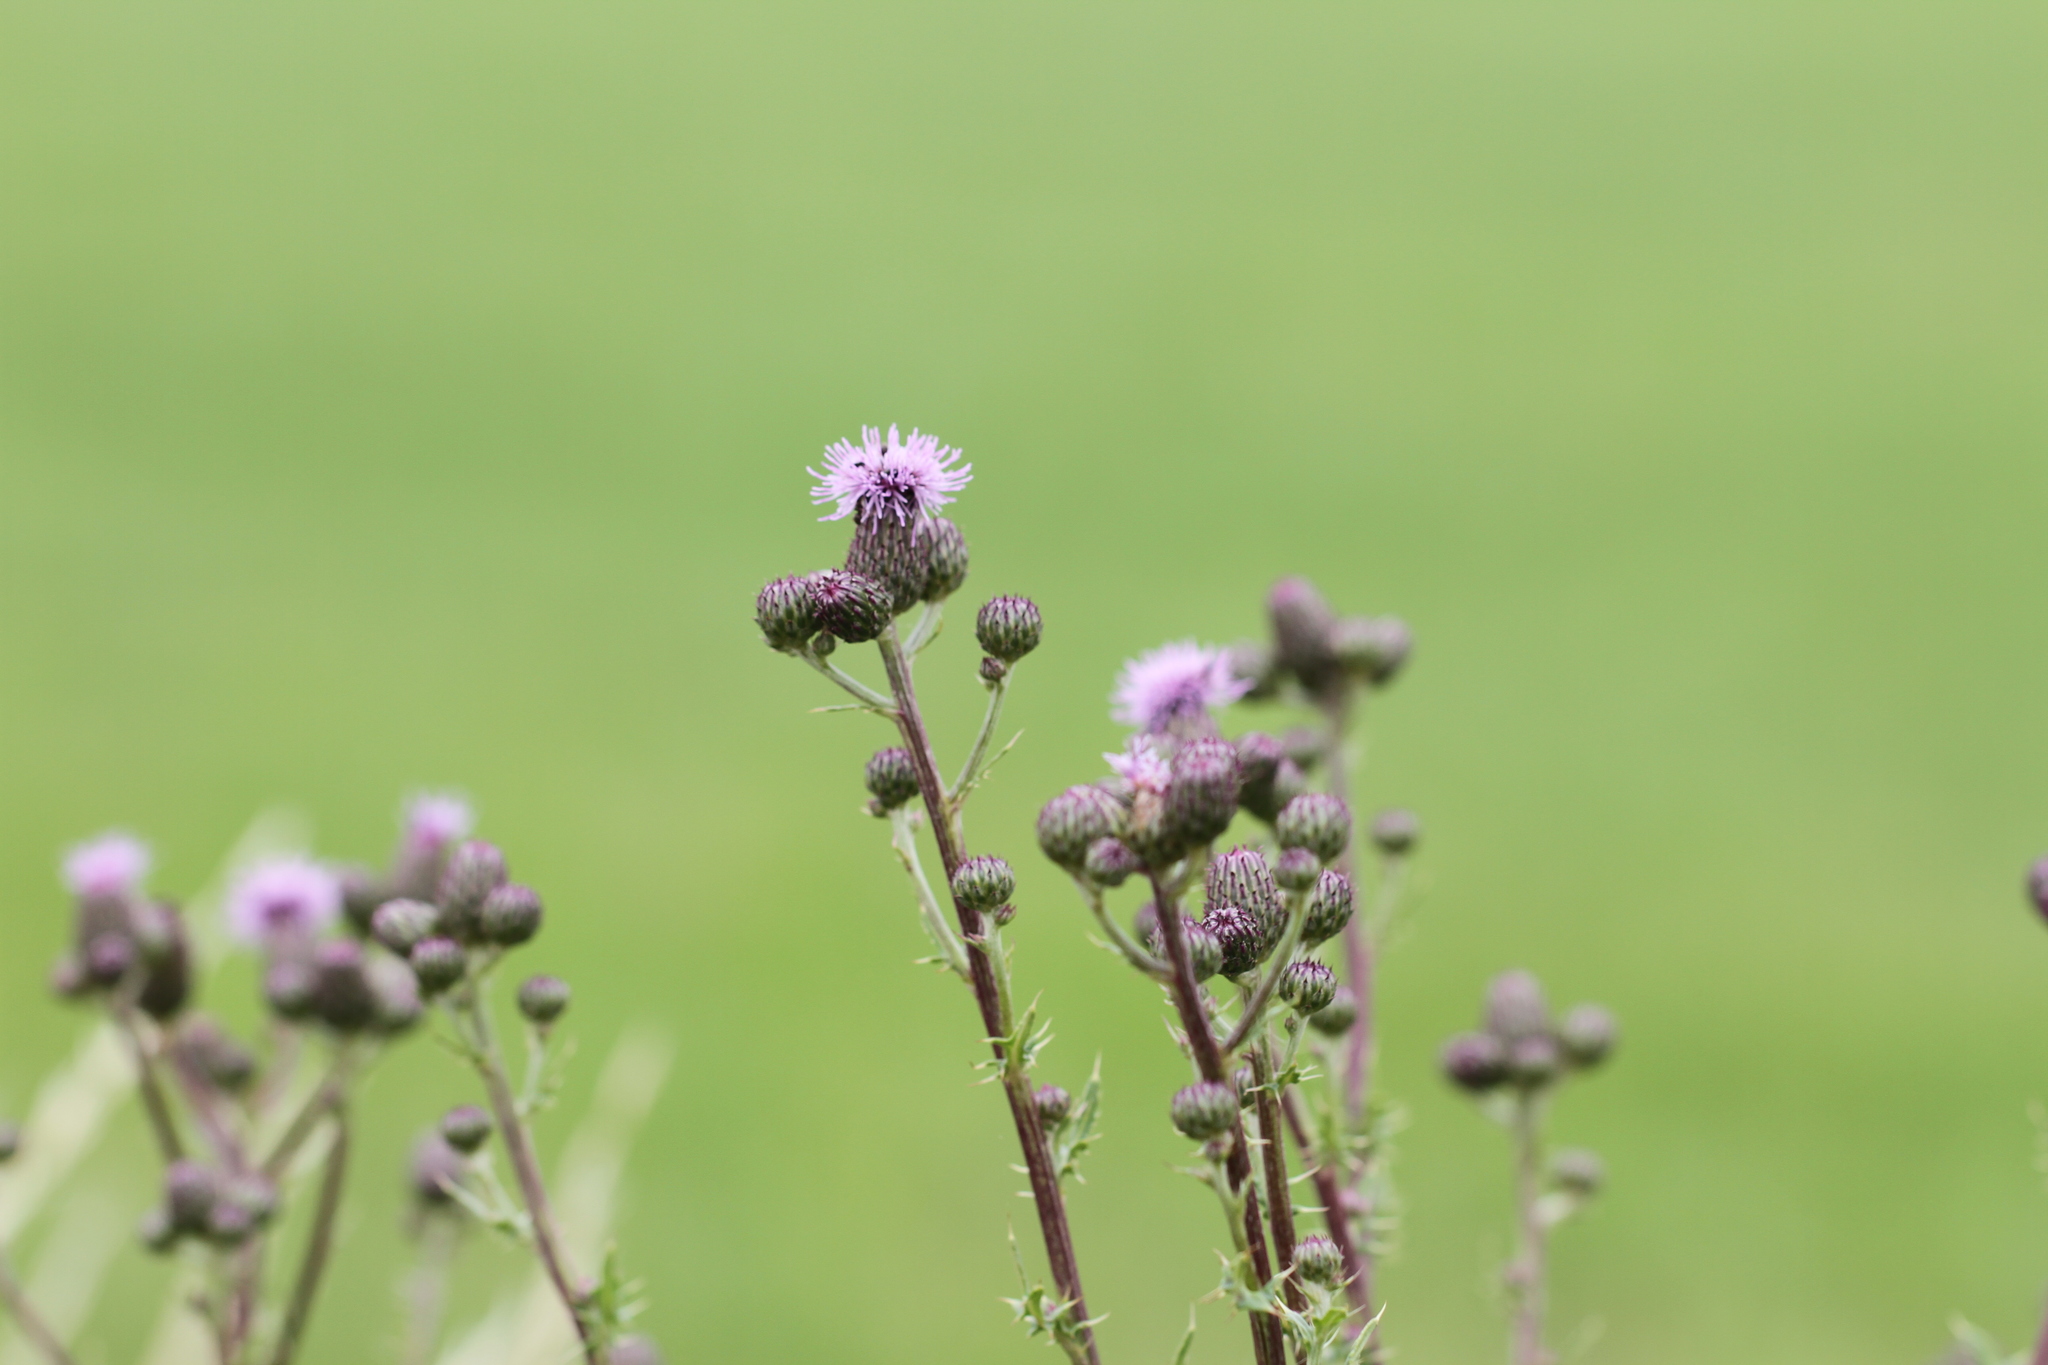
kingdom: Plantae
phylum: Tracheophyta
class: Magnoliopsida
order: Asterales
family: Asteraceae
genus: Carduus
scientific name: Carduus crispus
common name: Welted thistle
